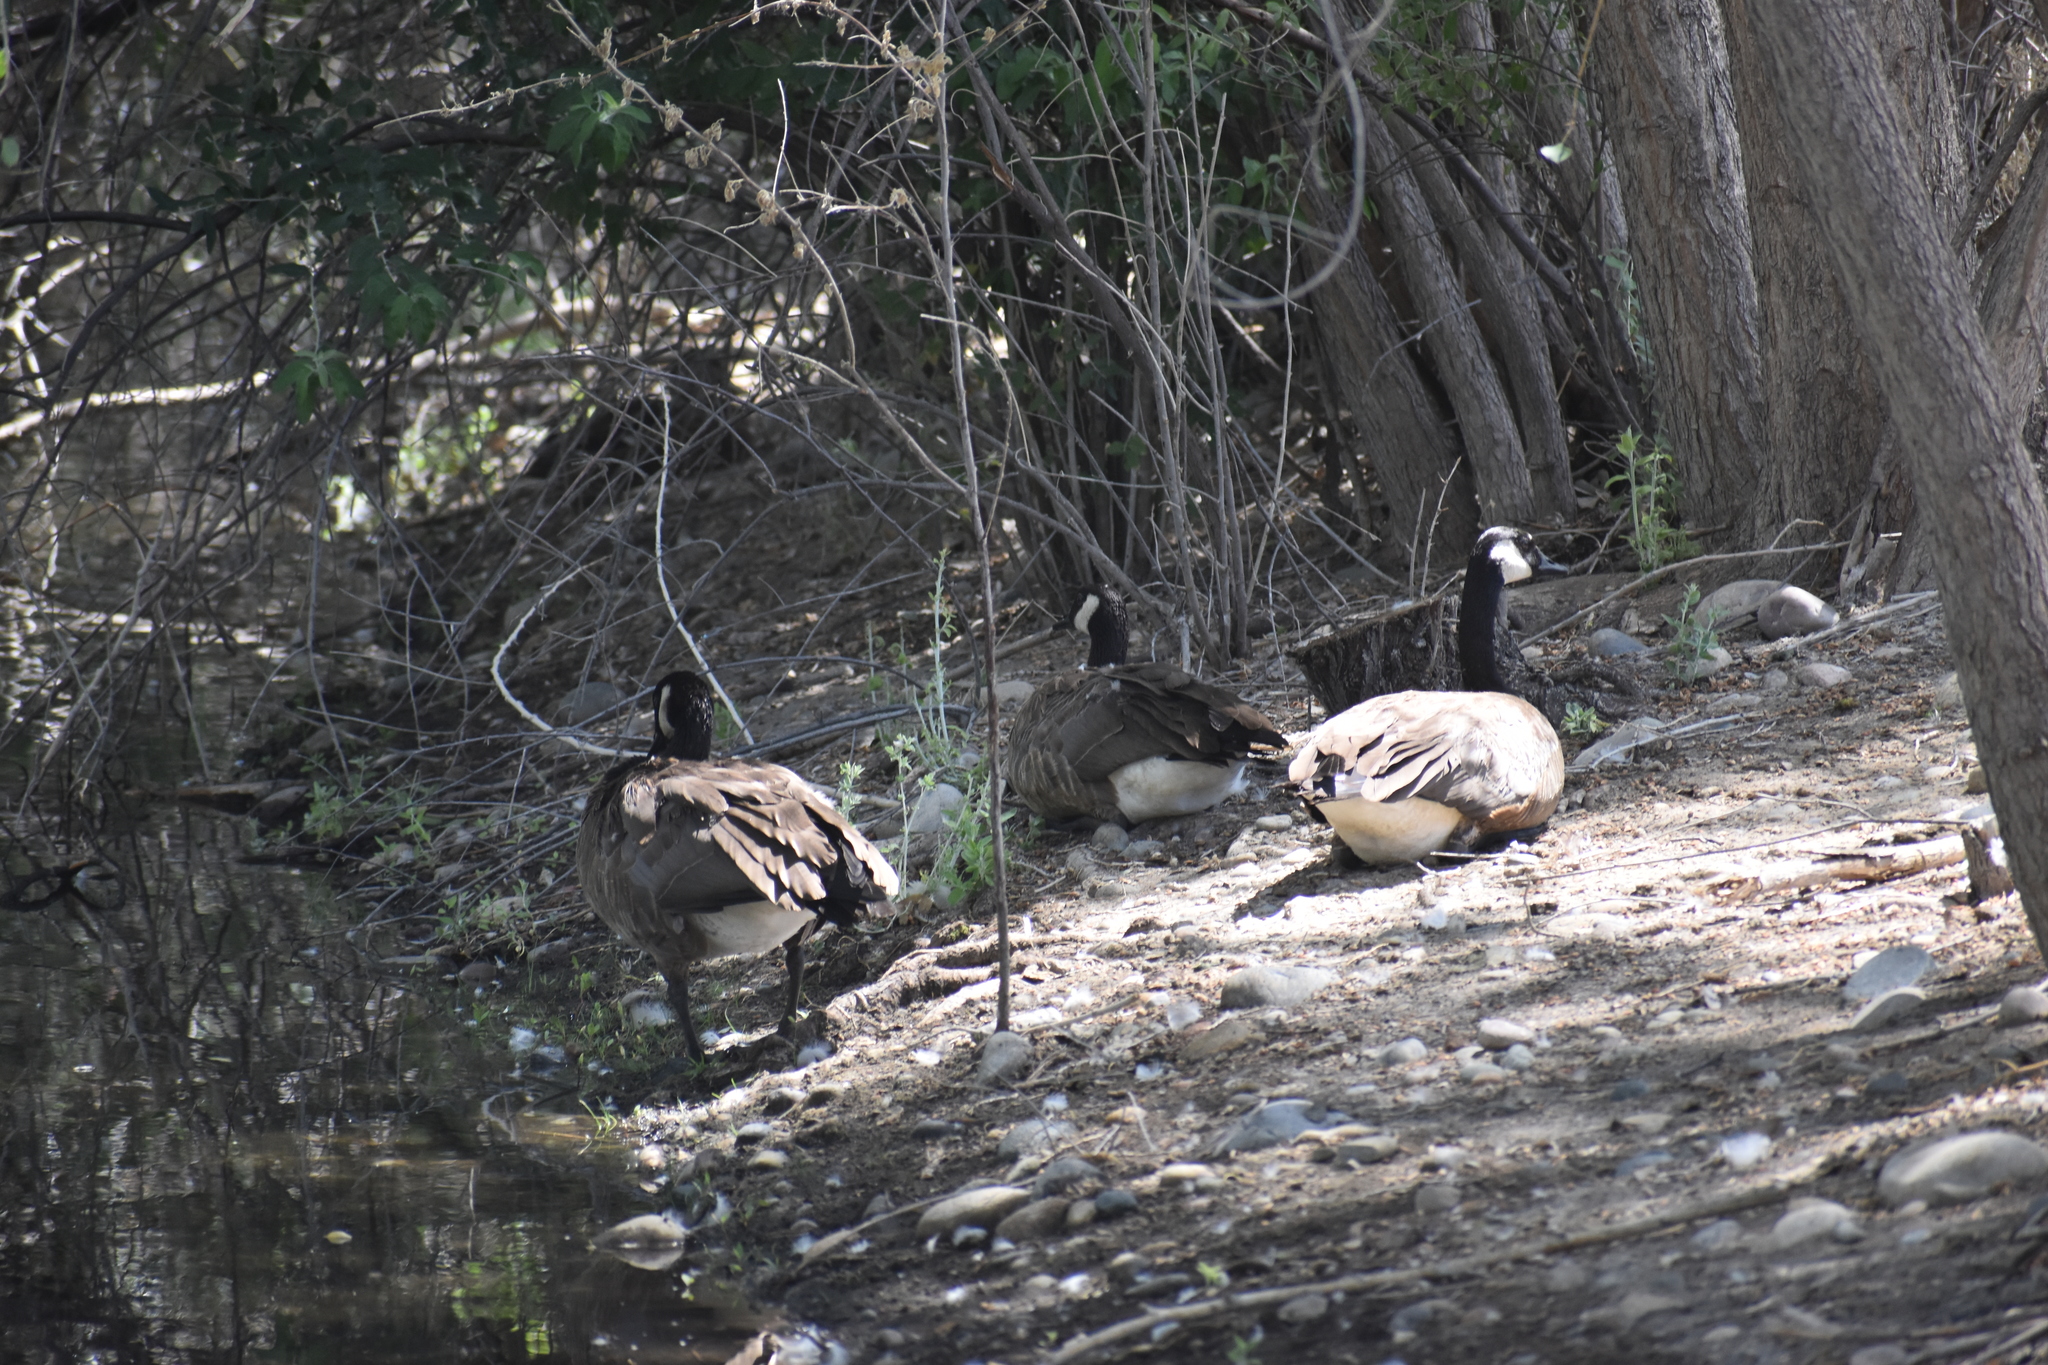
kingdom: Animalia
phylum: Chordata
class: Aves
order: Anseriformes
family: Anatidae
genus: Branta
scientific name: Branta canadensis
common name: Canada goose
